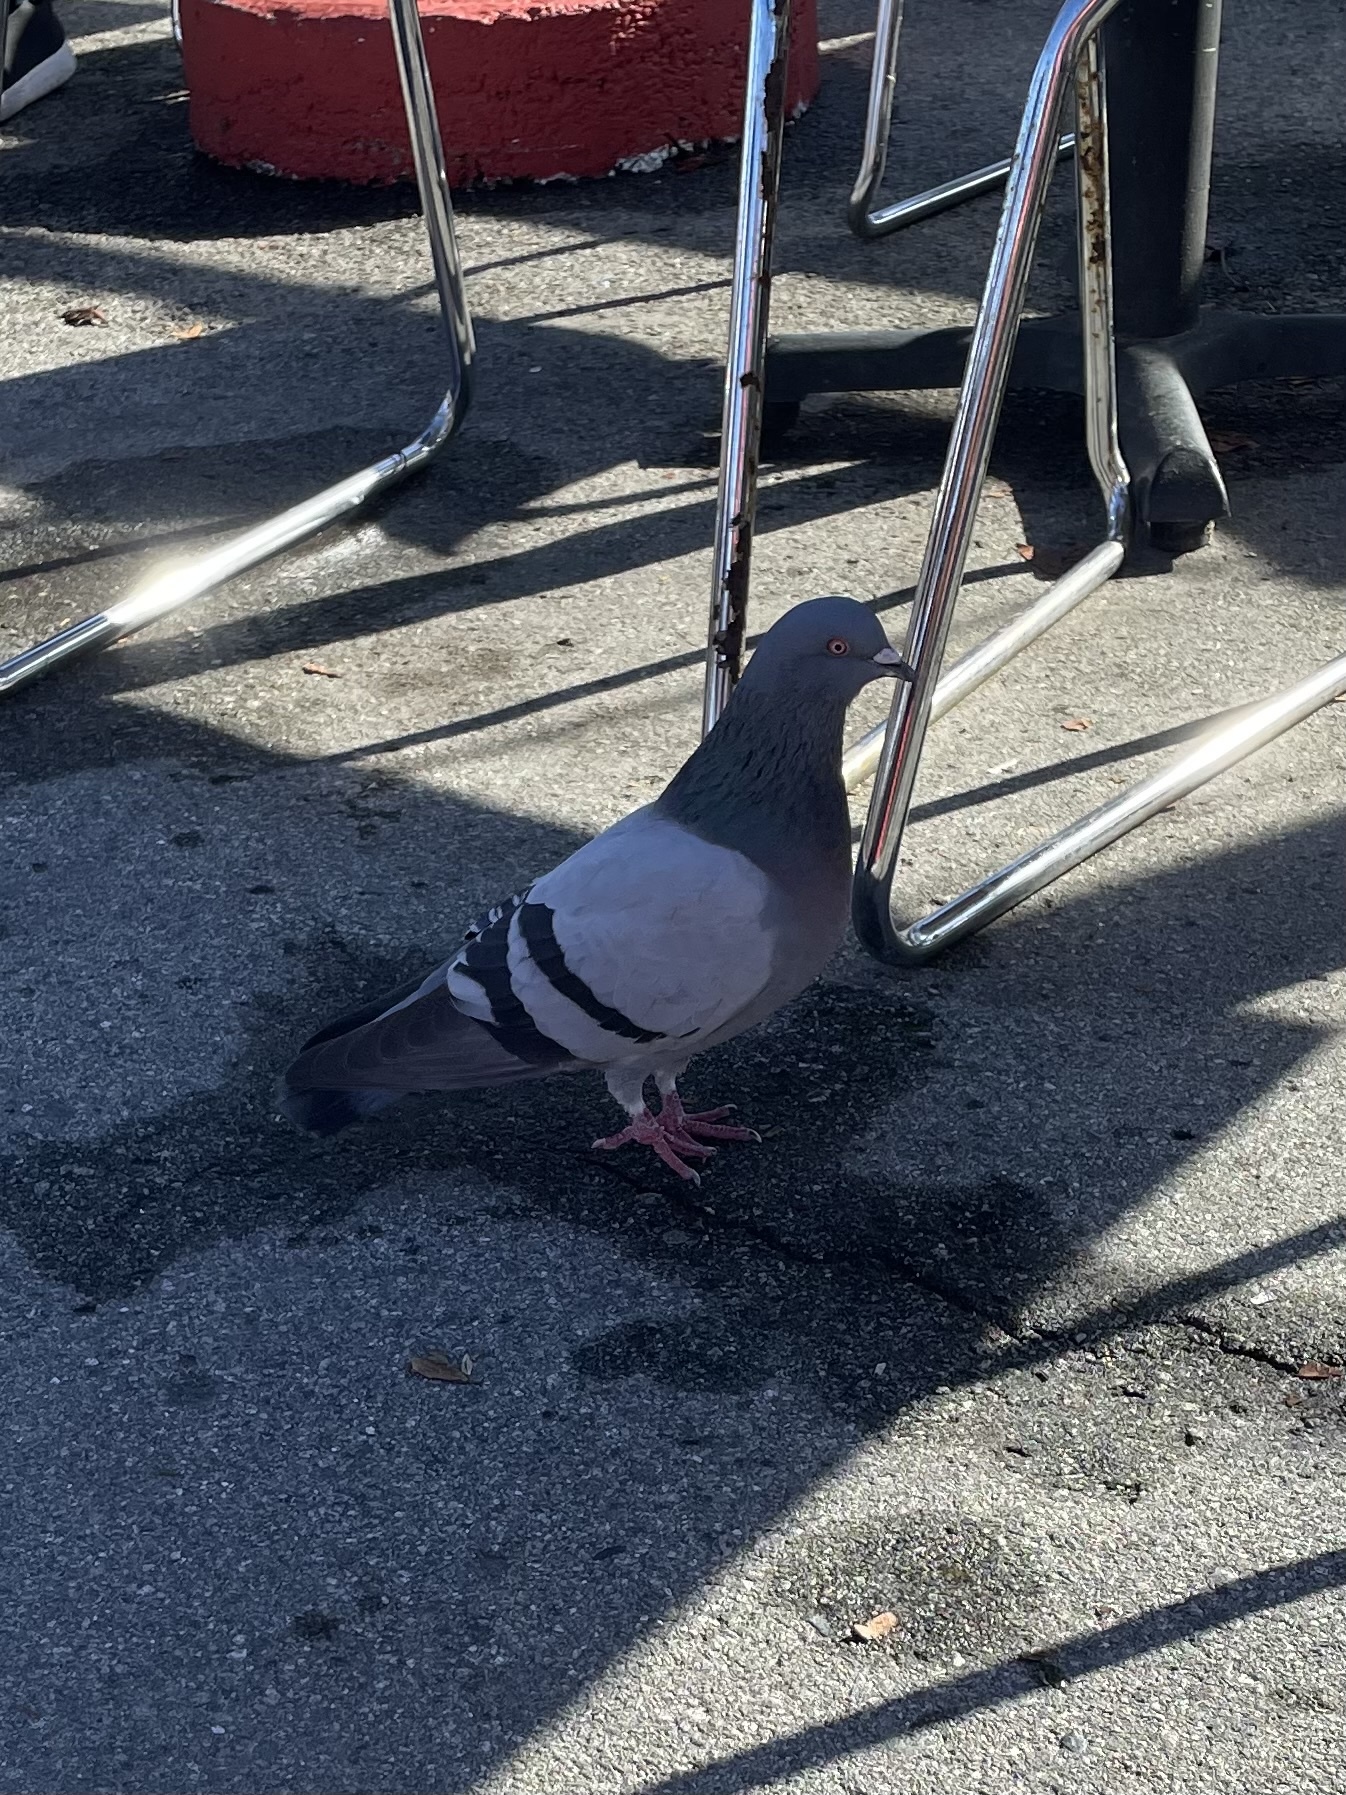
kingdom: Animalia
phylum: Chordata
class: Aves
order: Columbiformes
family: Columbidae
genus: Columba
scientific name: Columba livia
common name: Rock pigeon
